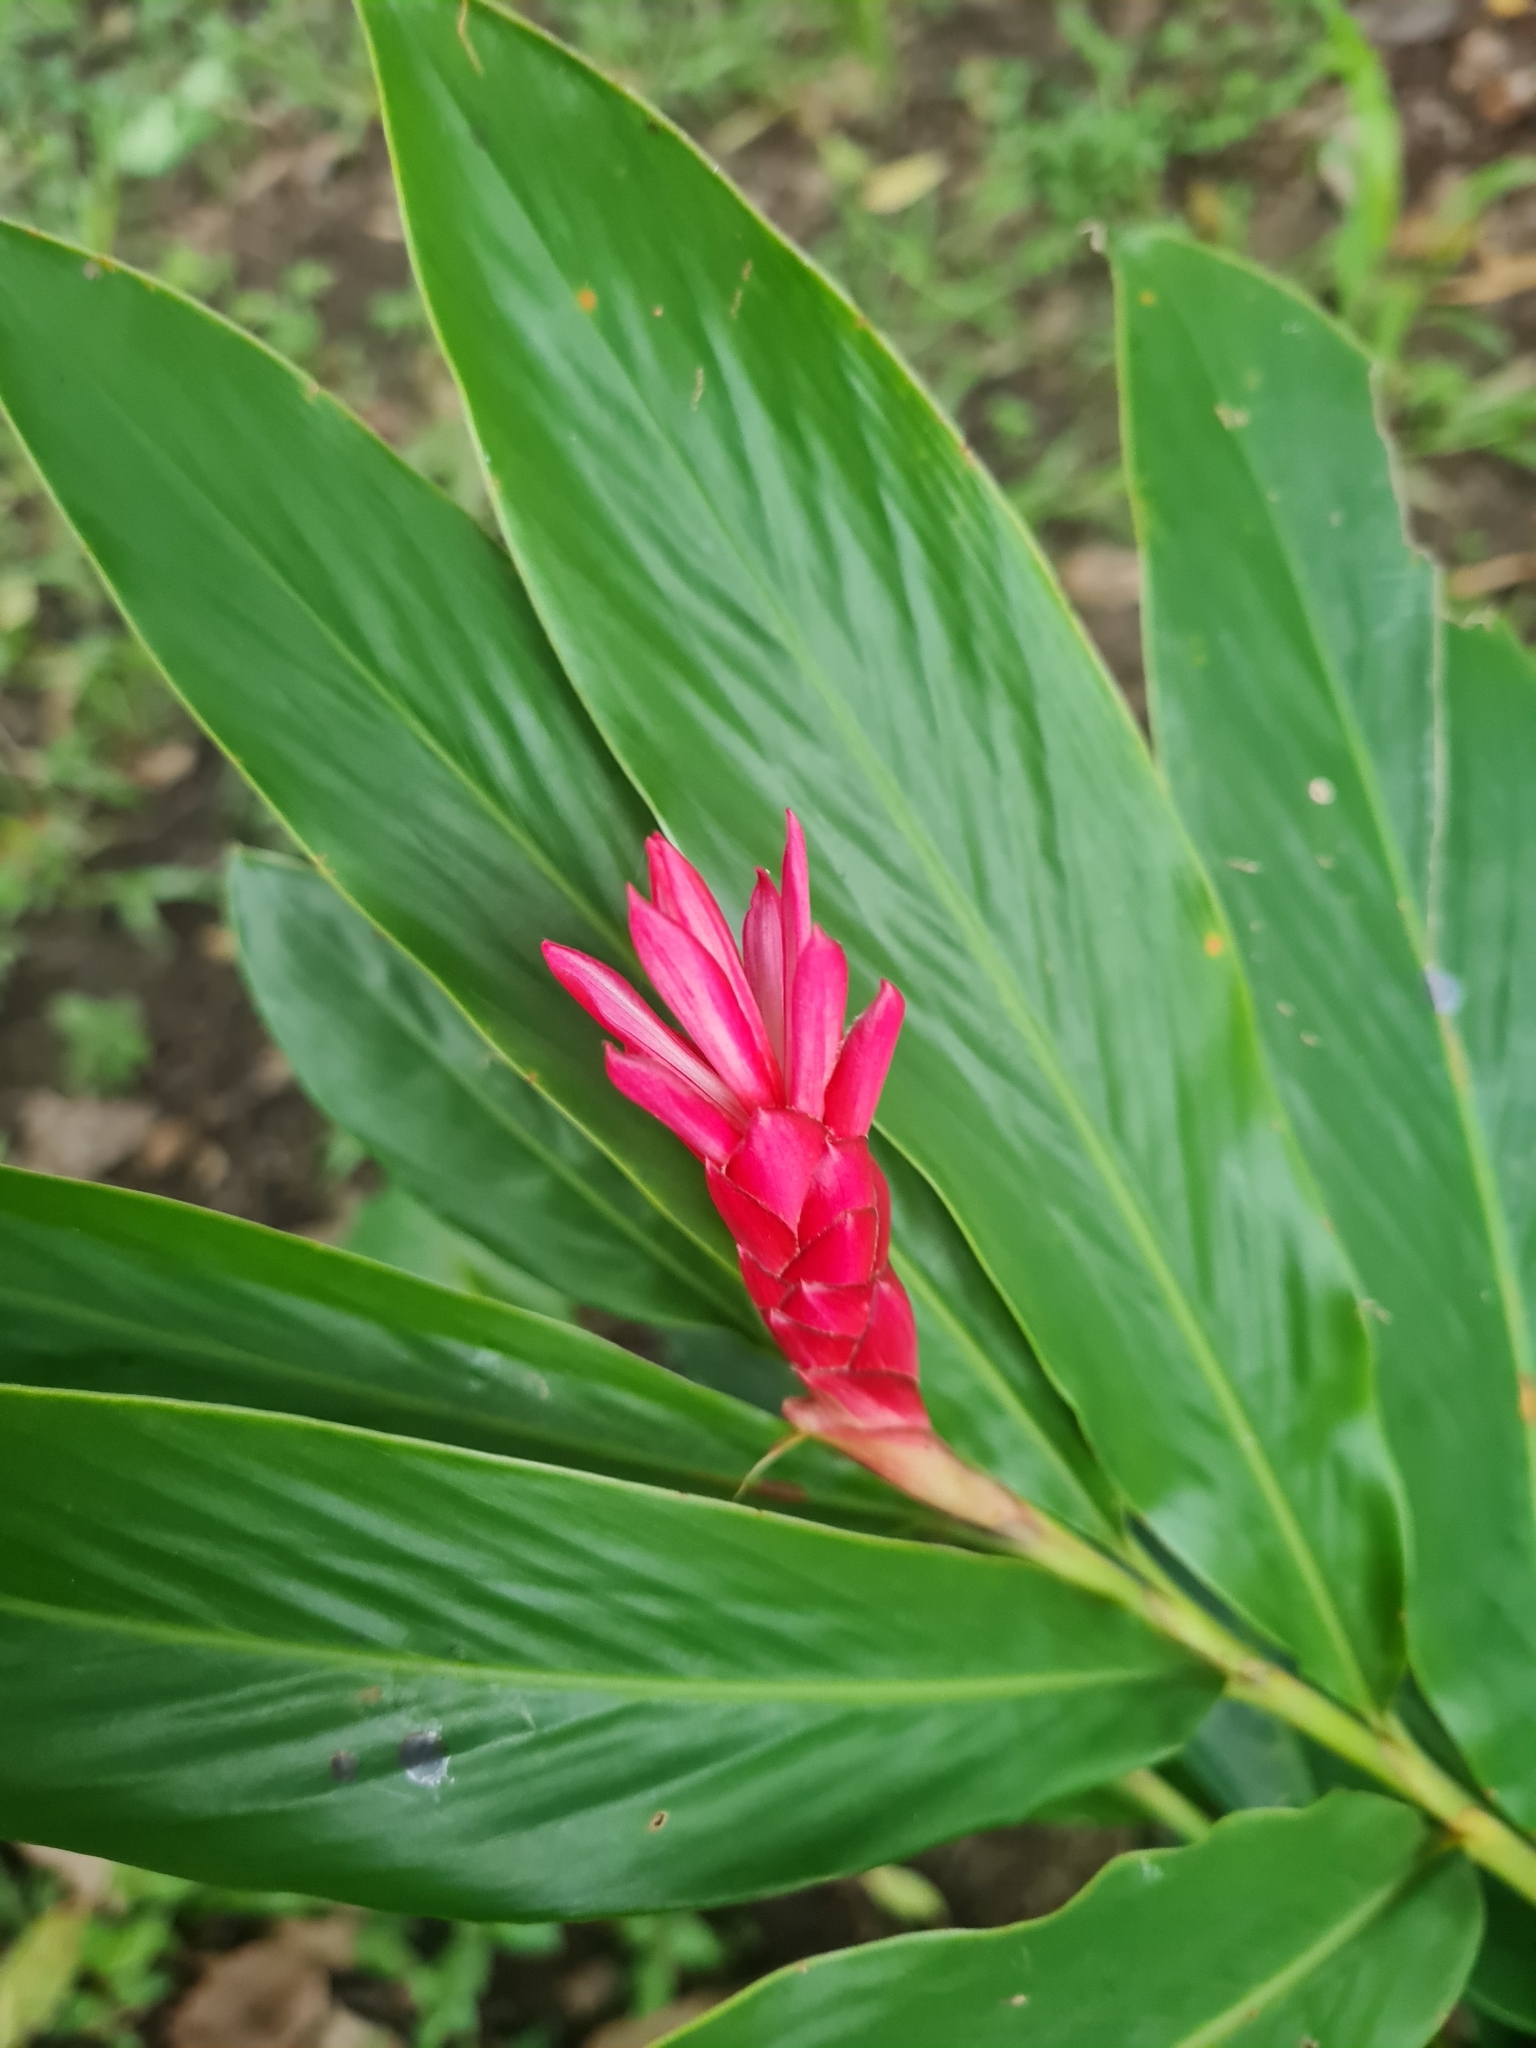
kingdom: Plantae
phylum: Tracheophyta
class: Liliopsida
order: Zingiberales
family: Zingiberaceae
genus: Alpinia
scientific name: Alpinia purpurata
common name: Red ginger
